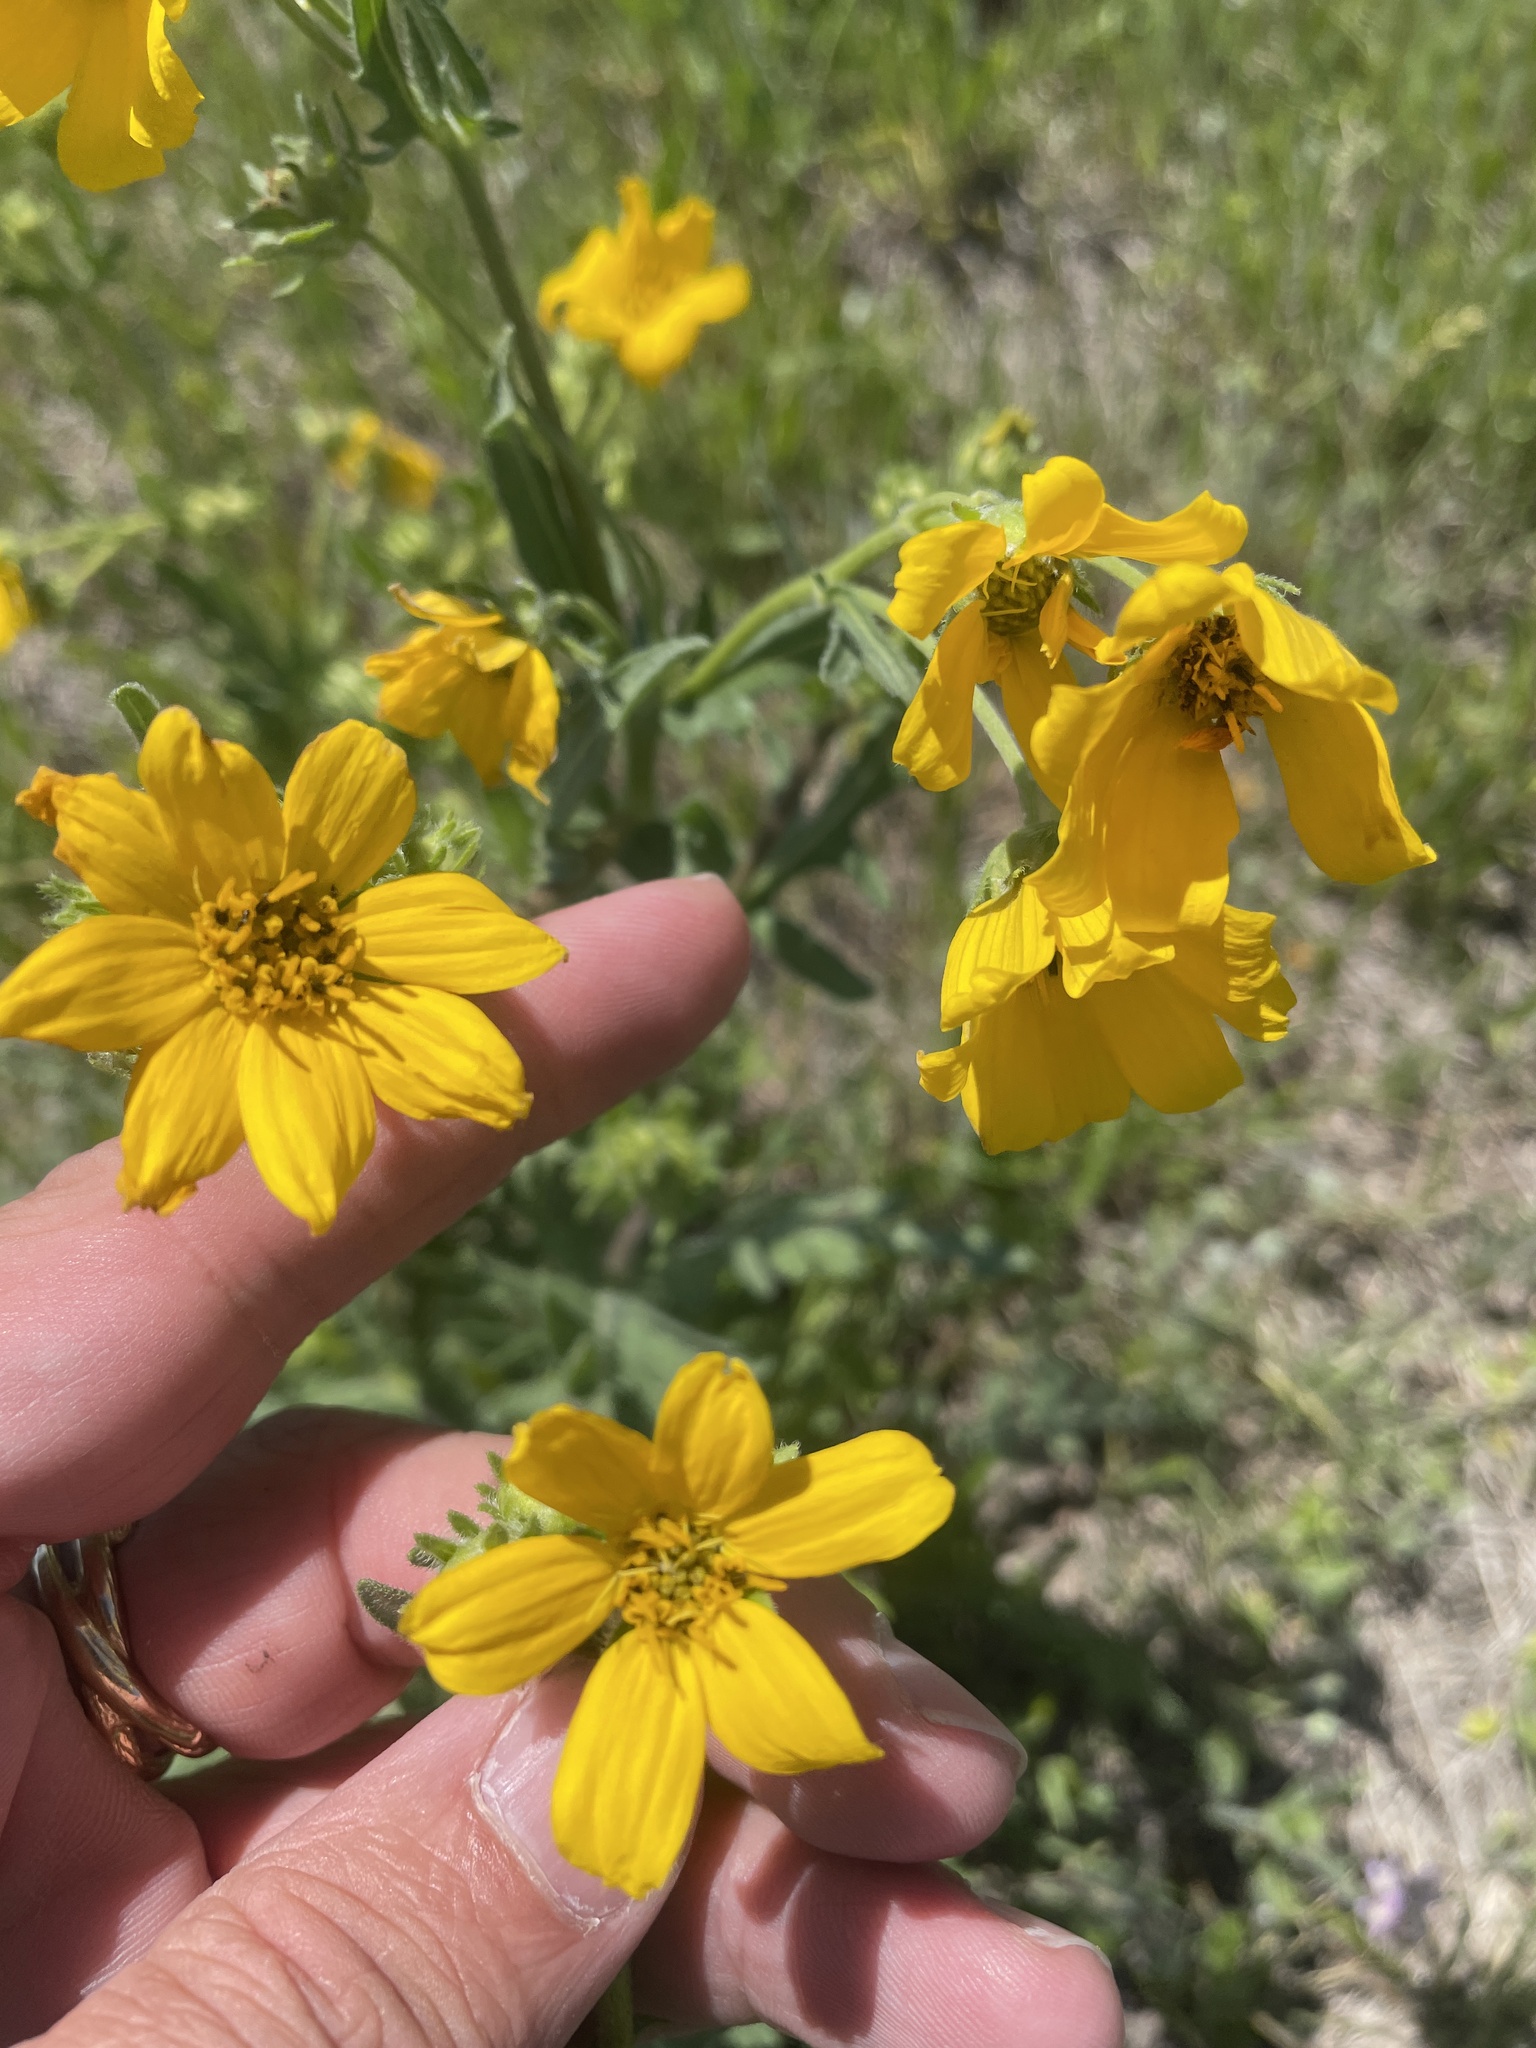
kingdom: Plantae
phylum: Tracheophyta
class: Magnoliopsida
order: Asterales
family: Asteraceae
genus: Engelmannia
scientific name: Engelmannia peristenia
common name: Engelmann's daisy
